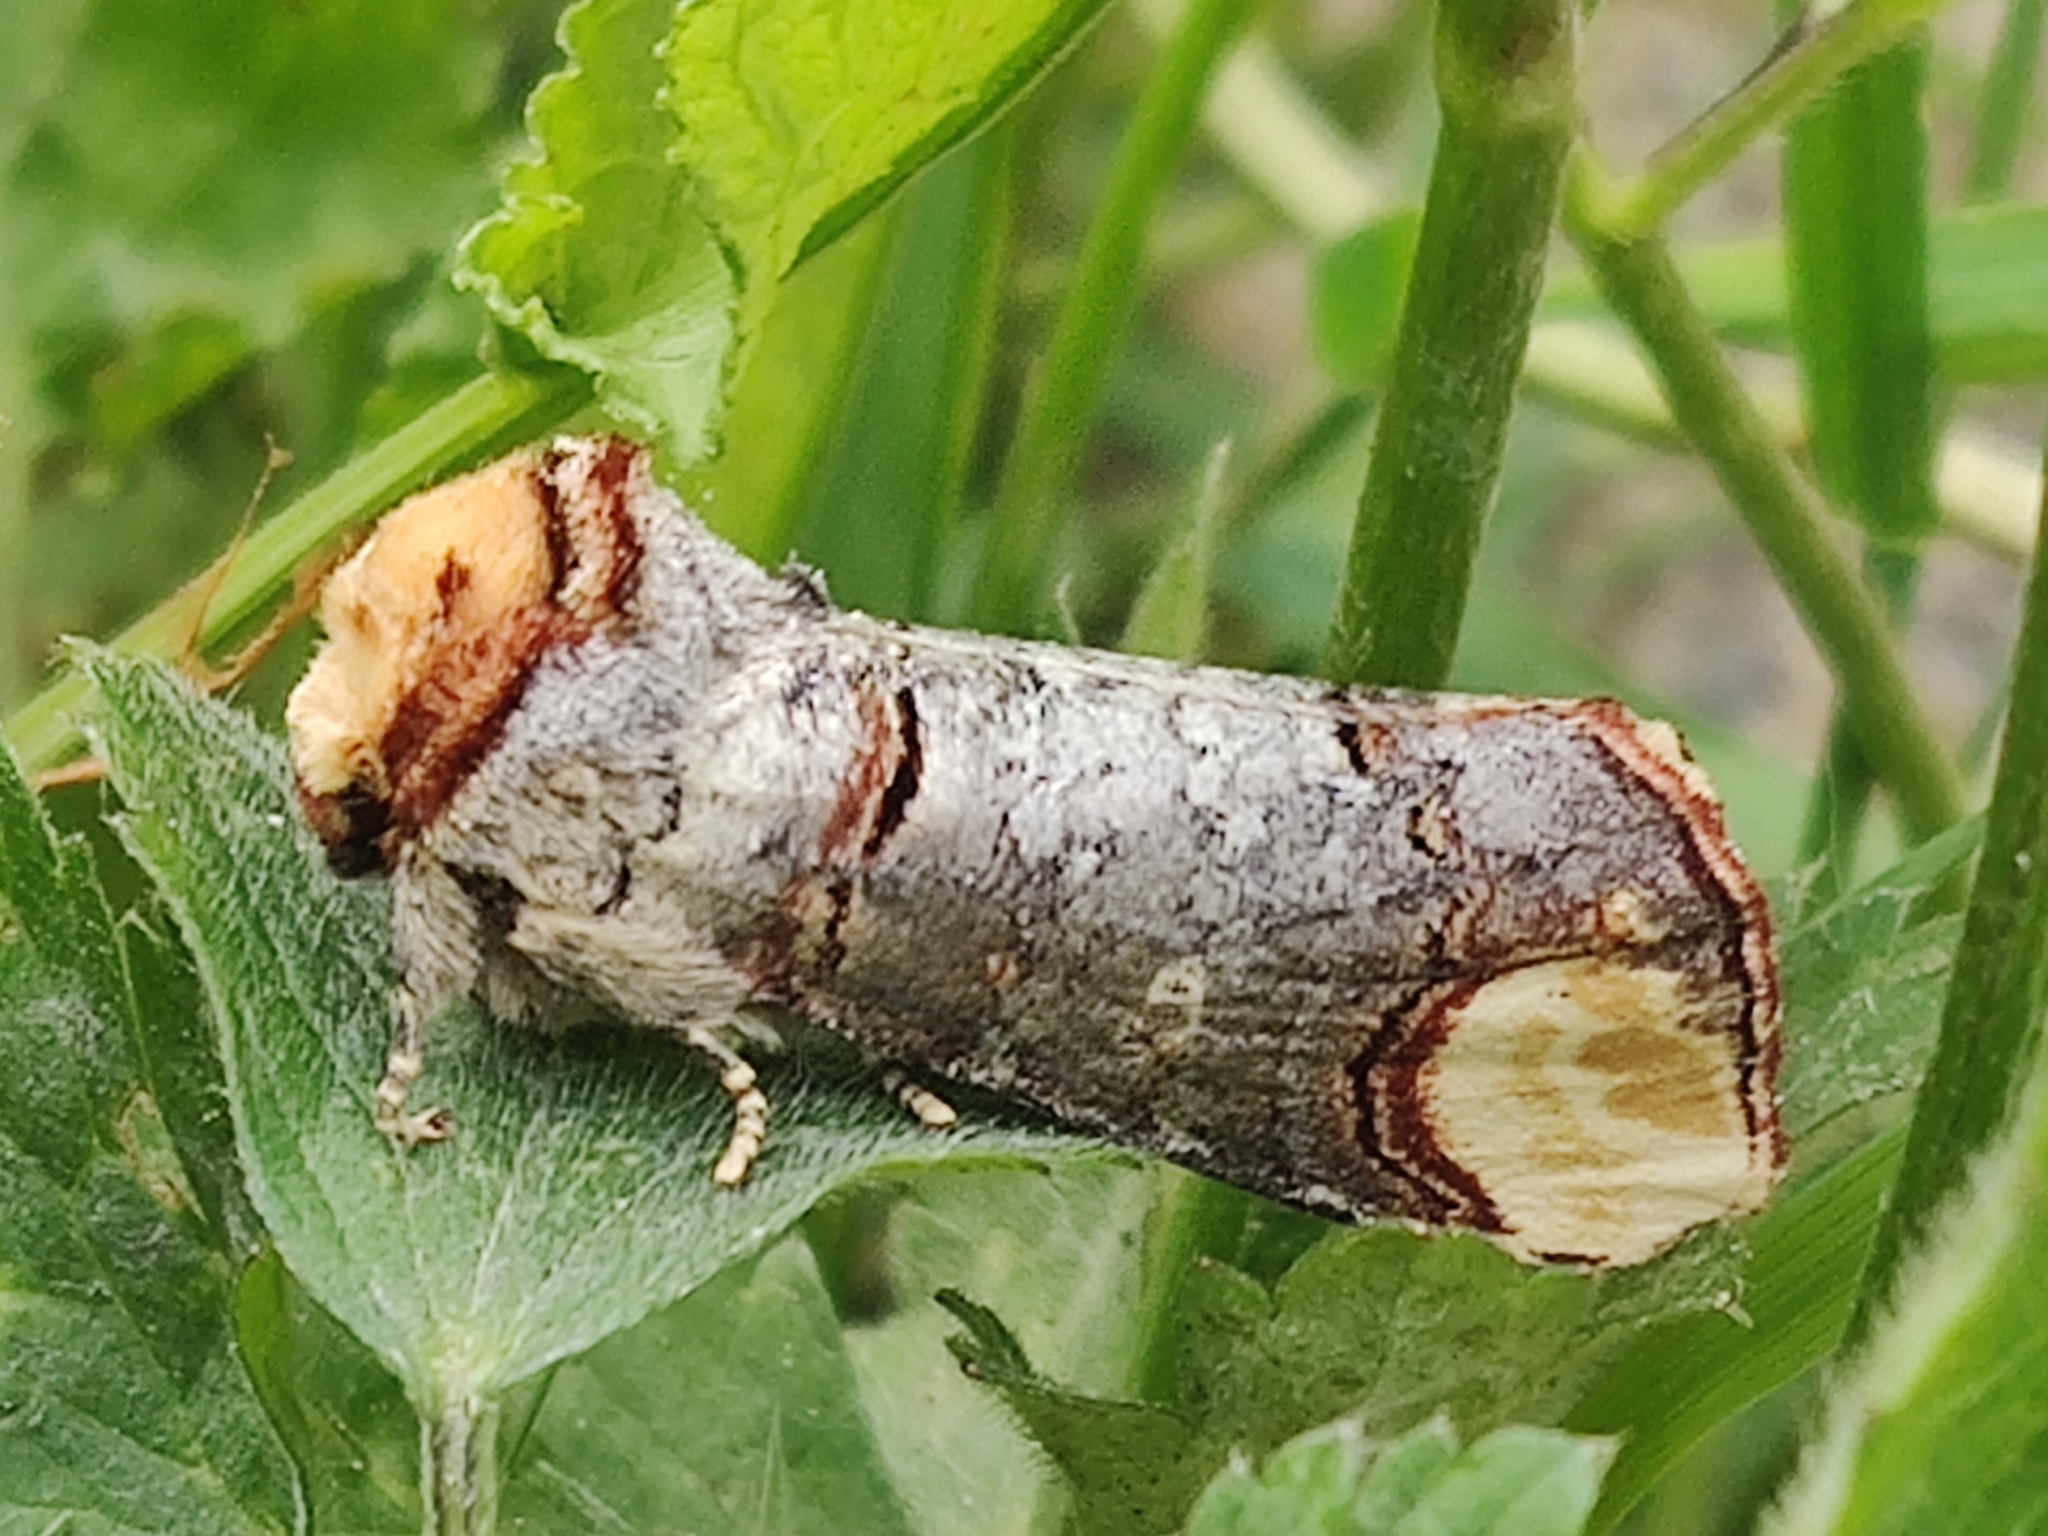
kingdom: Animalia
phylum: Arthropoda
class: Insecta
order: Lepidoptera
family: Notodontidae
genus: Phalera
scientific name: Phalera bucephala
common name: Buff-tip
